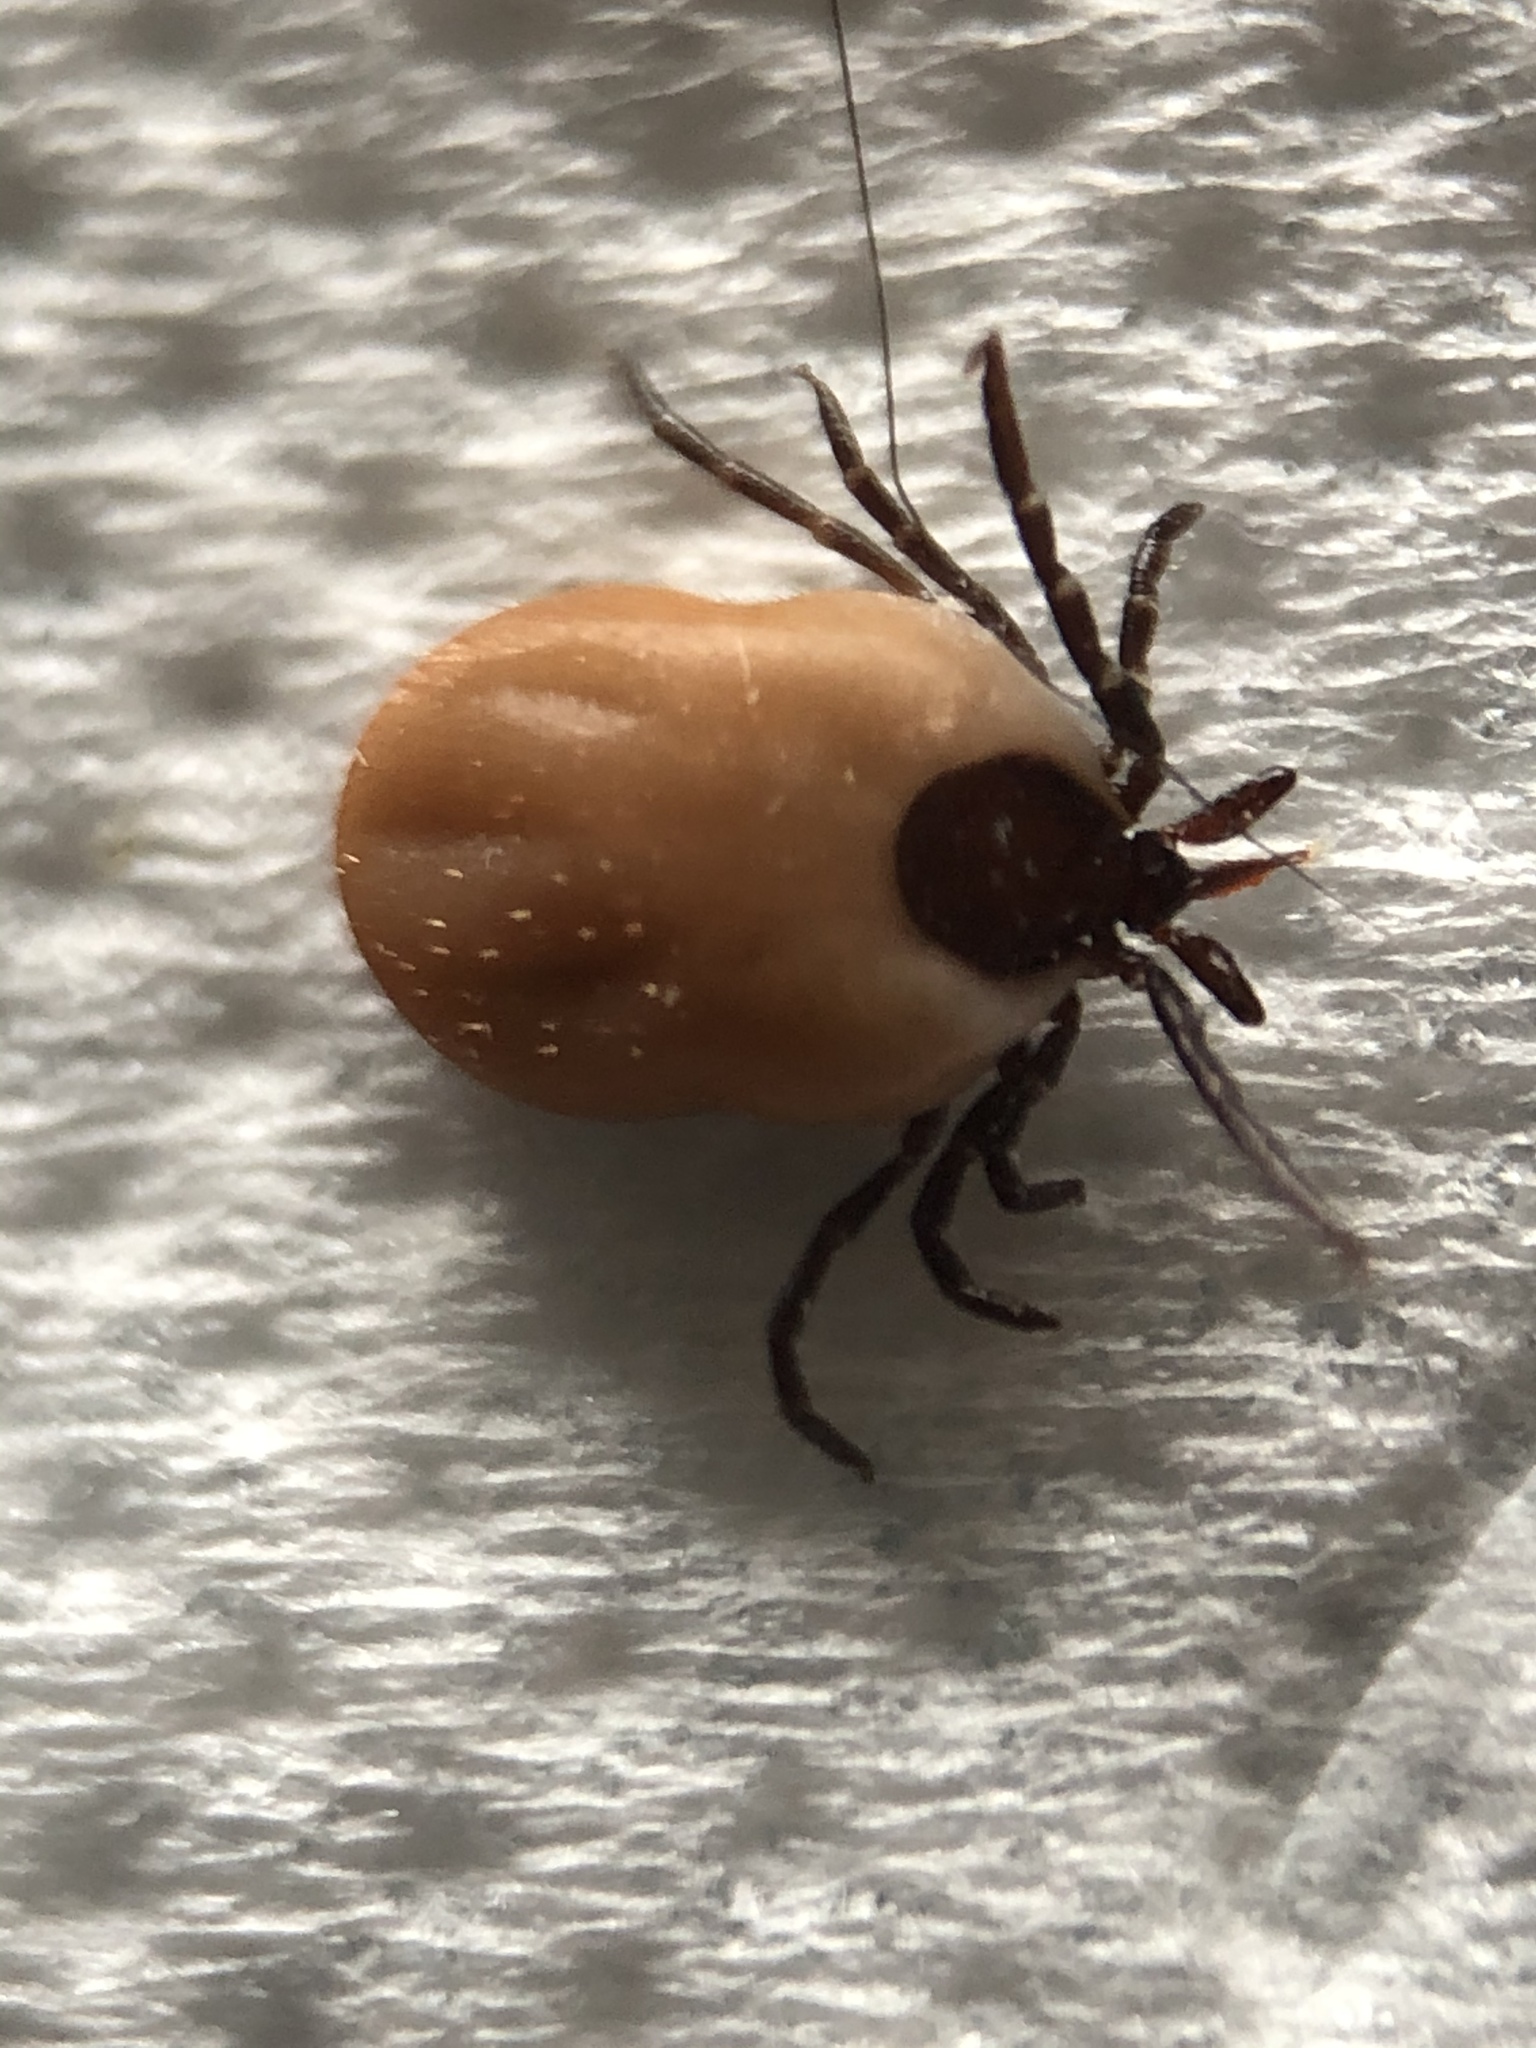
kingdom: Animalia
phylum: Arthropoda
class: Arachnida
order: Ixodida
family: Ixodidae
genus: Ixodes
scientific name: Ixodes ricinus
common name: Castor bean tick
